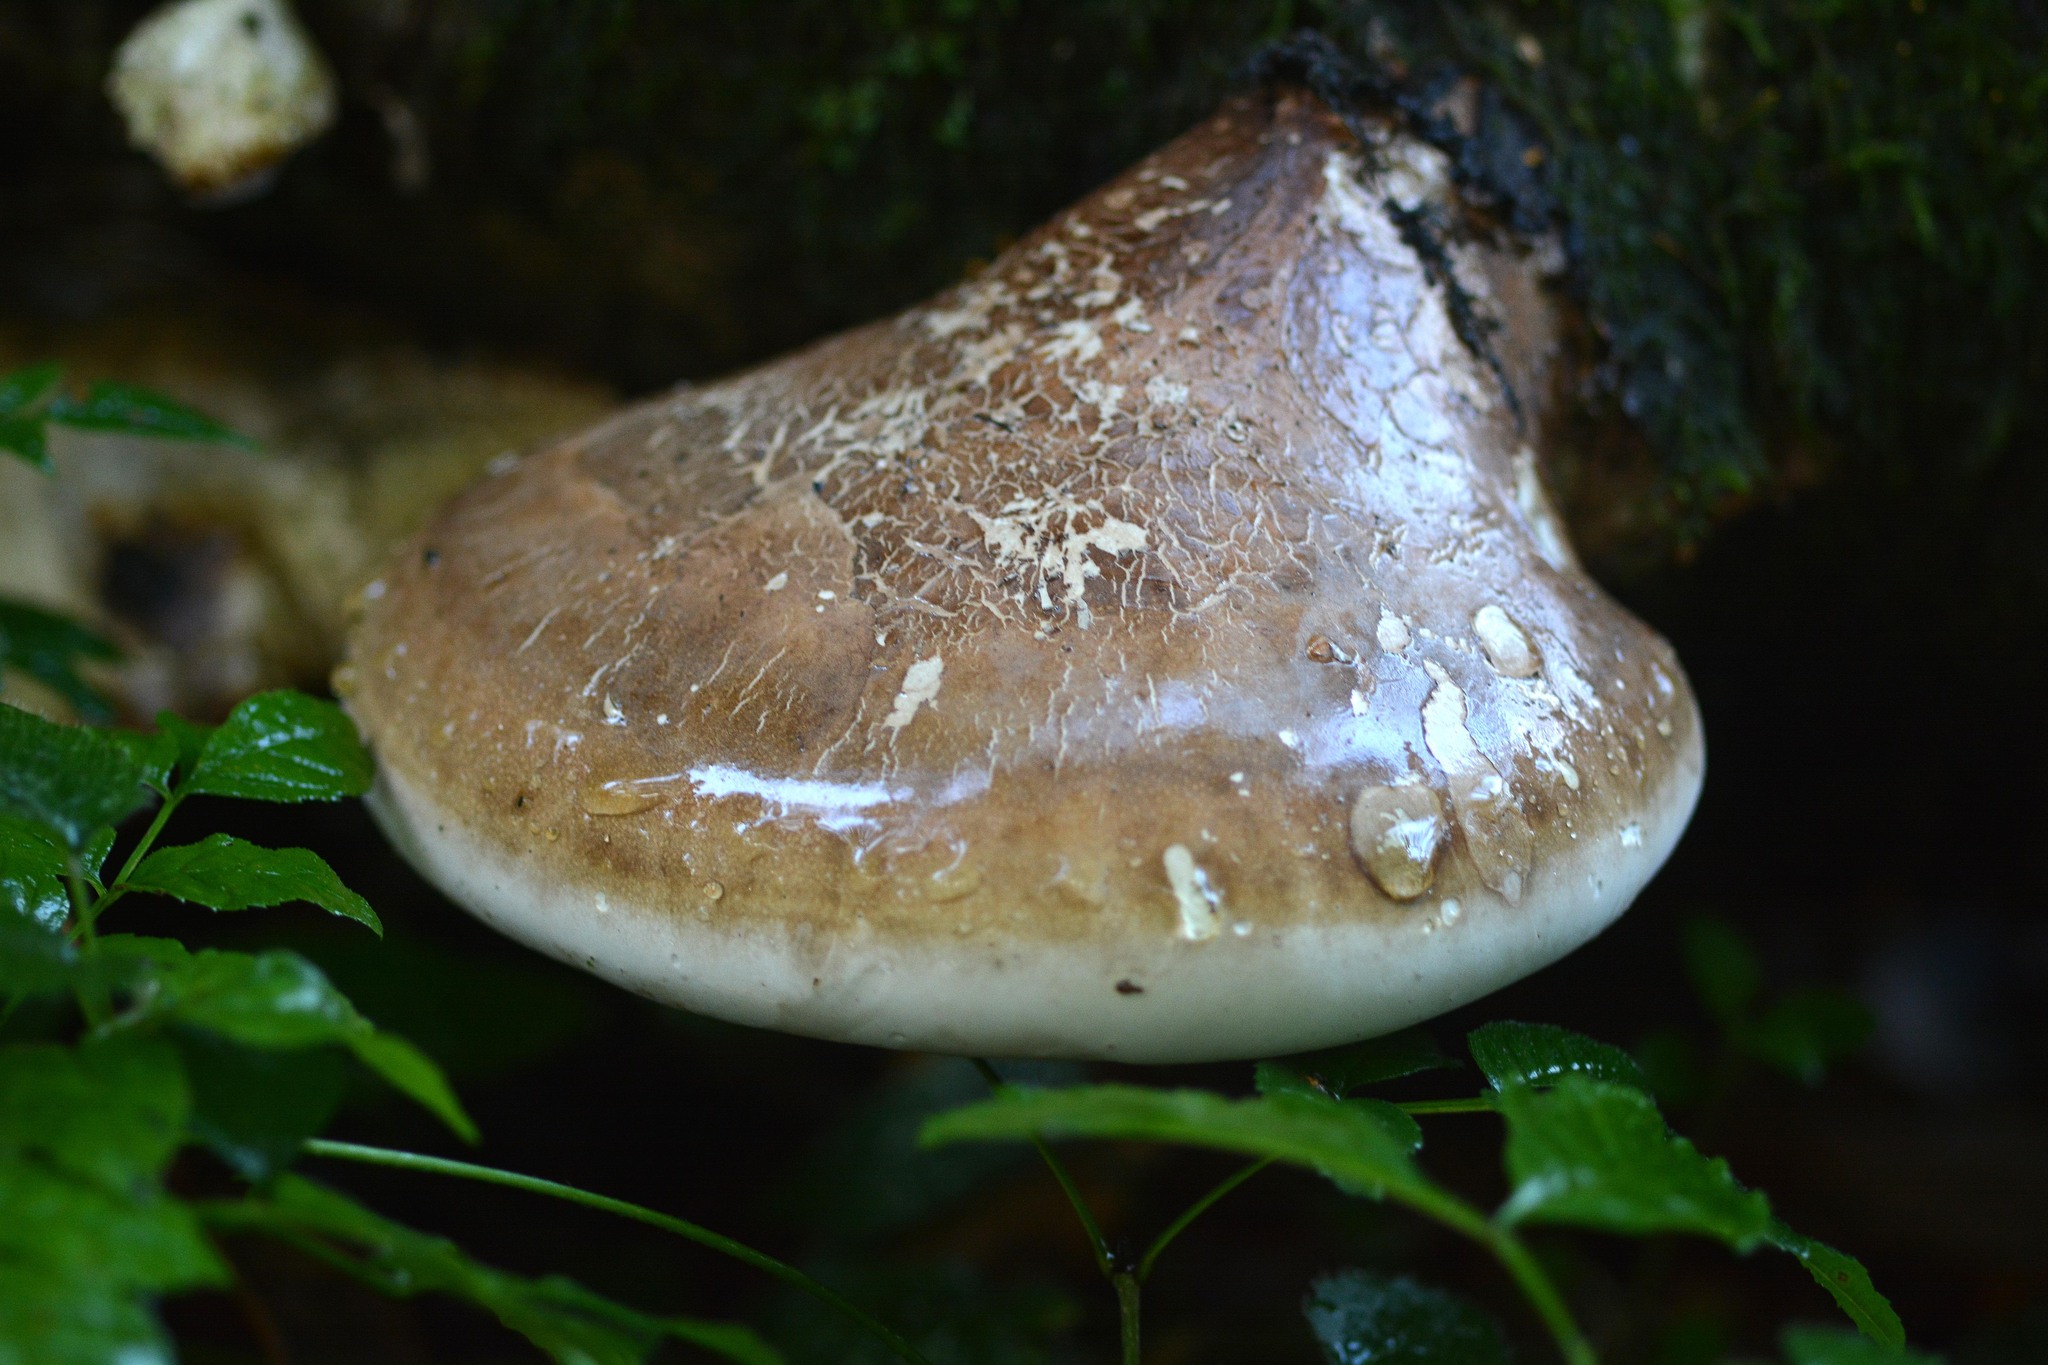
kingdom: Fungi
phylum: Basidiomycota
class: Agaricomycetes
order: Polyporales
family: Fomitopsidaceae
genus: Fomitopsis
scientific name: Fomitopsis betulina
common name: Birch polypore
